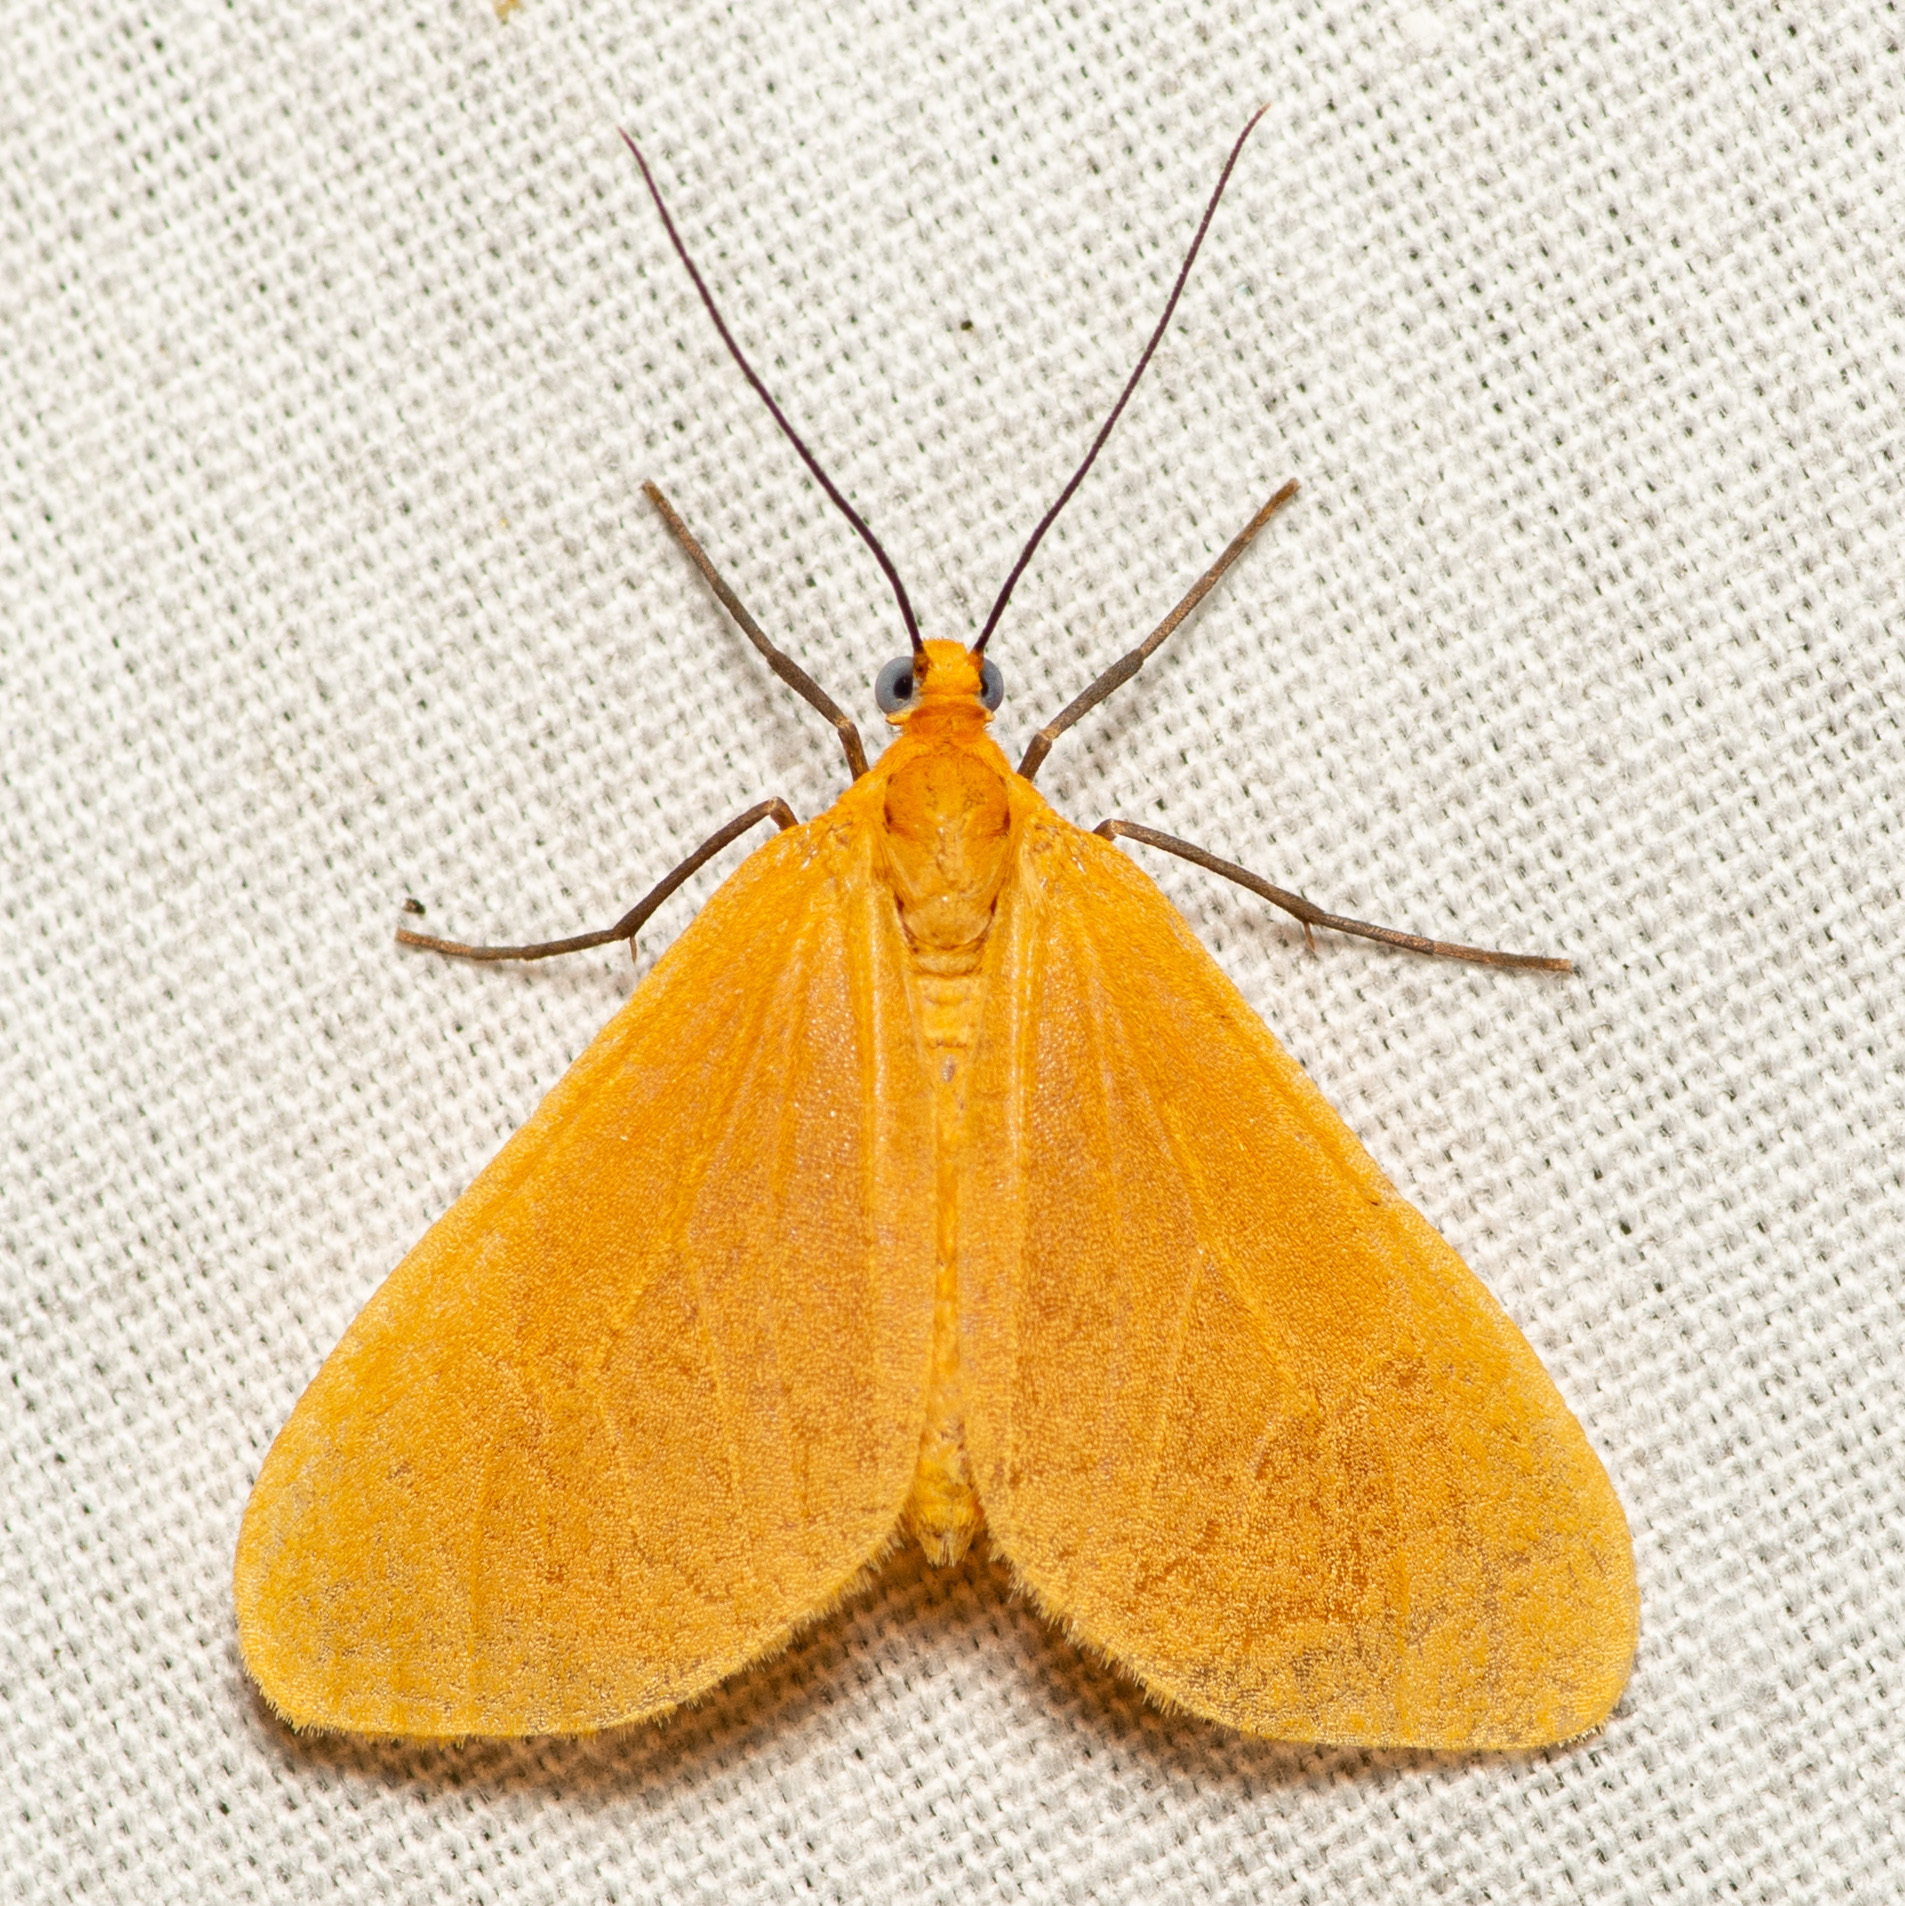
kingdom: Animalia
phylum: Arthropoda
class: Insecta
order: Lepidoptera
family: Geometridae
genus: Eubaphe
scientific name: Eubaphe unicolor
